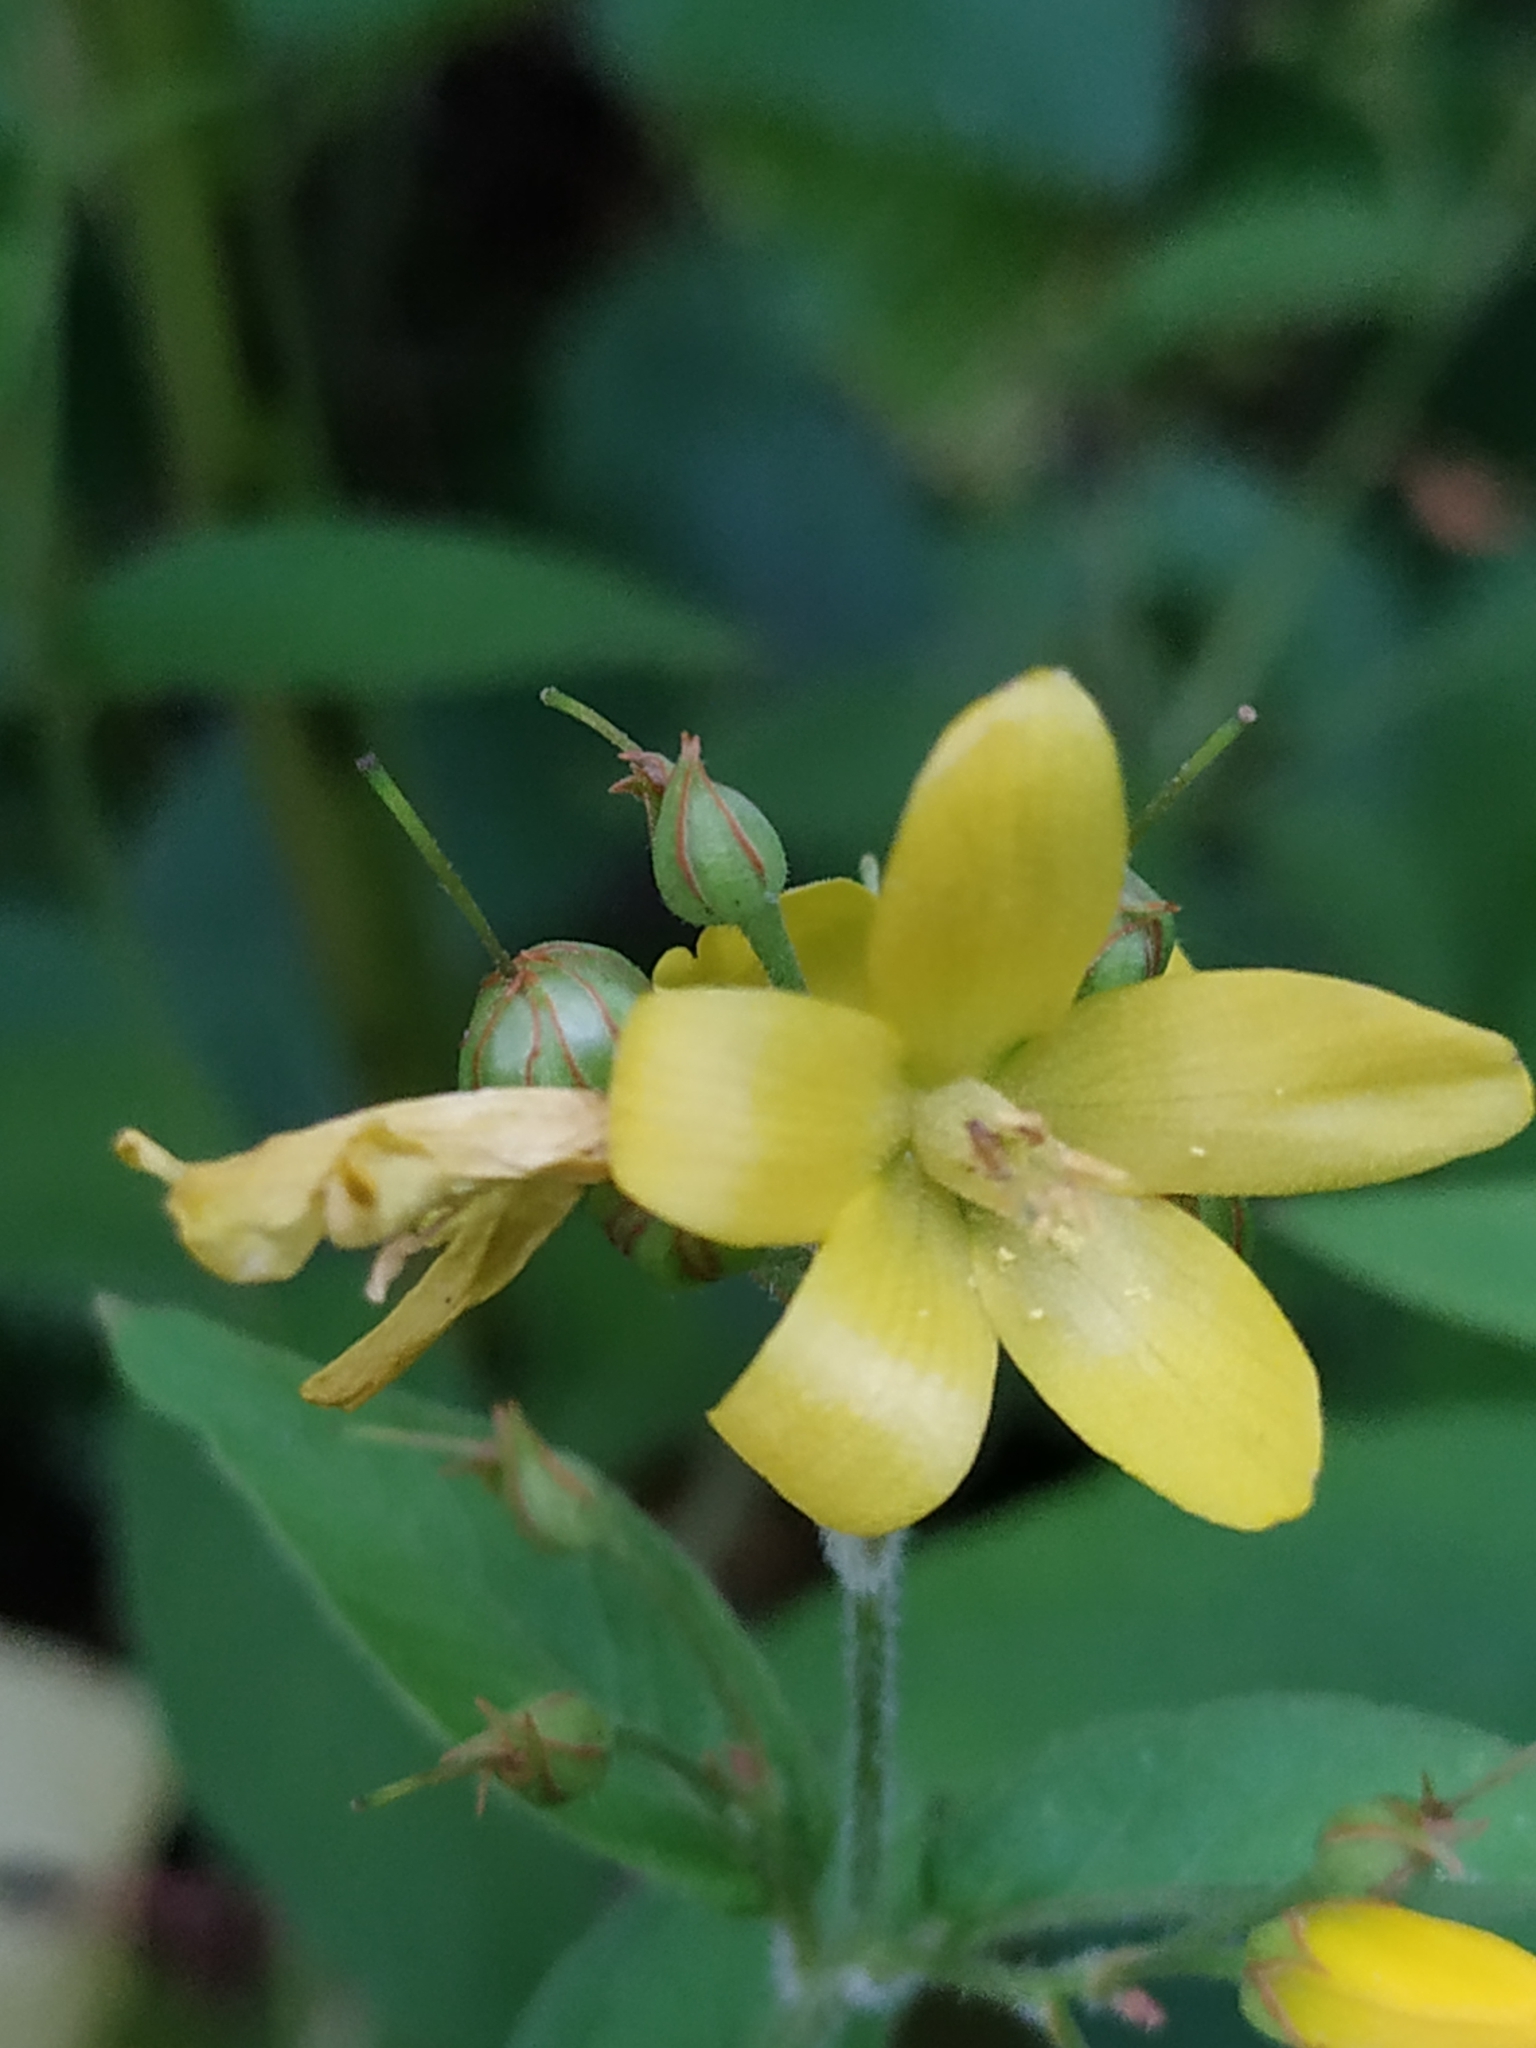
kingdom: Plantae
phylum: Tracheophyta
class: Magnoliopsida
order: Ericales
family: Primulaceae
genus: Lysimachia
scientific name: Lysimachia vulgaris
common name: Yellow loosestrife
